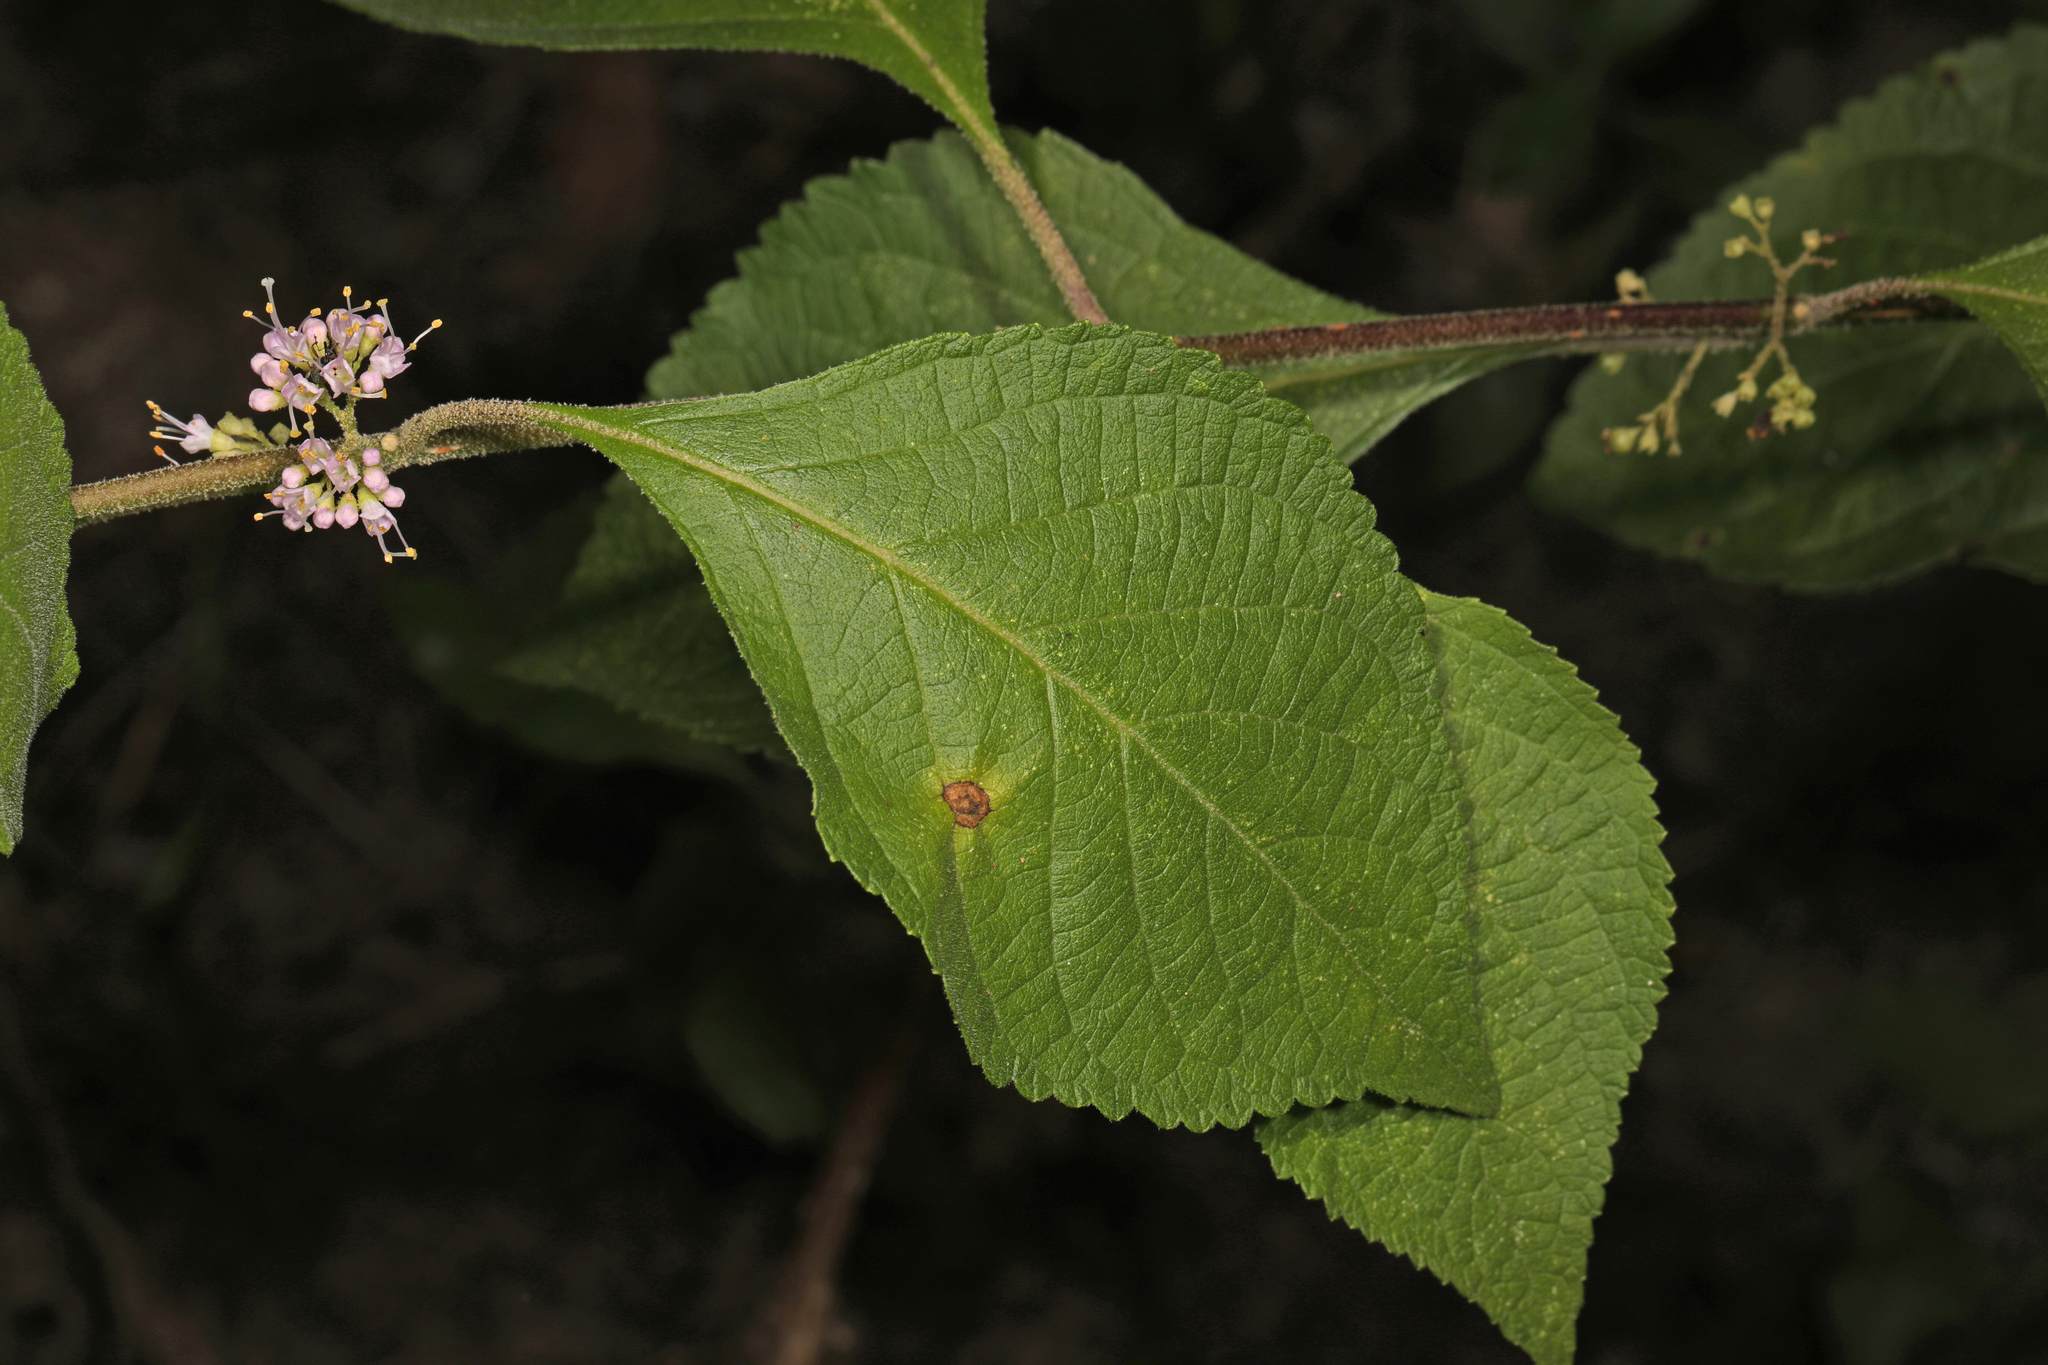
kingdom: Plantae
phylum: Tracheophyta
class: Magnoliopsida
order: Lamiales
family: Lamiaceae
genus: Callicarpa
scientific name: Callicarpa americana
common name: American beautyberry
